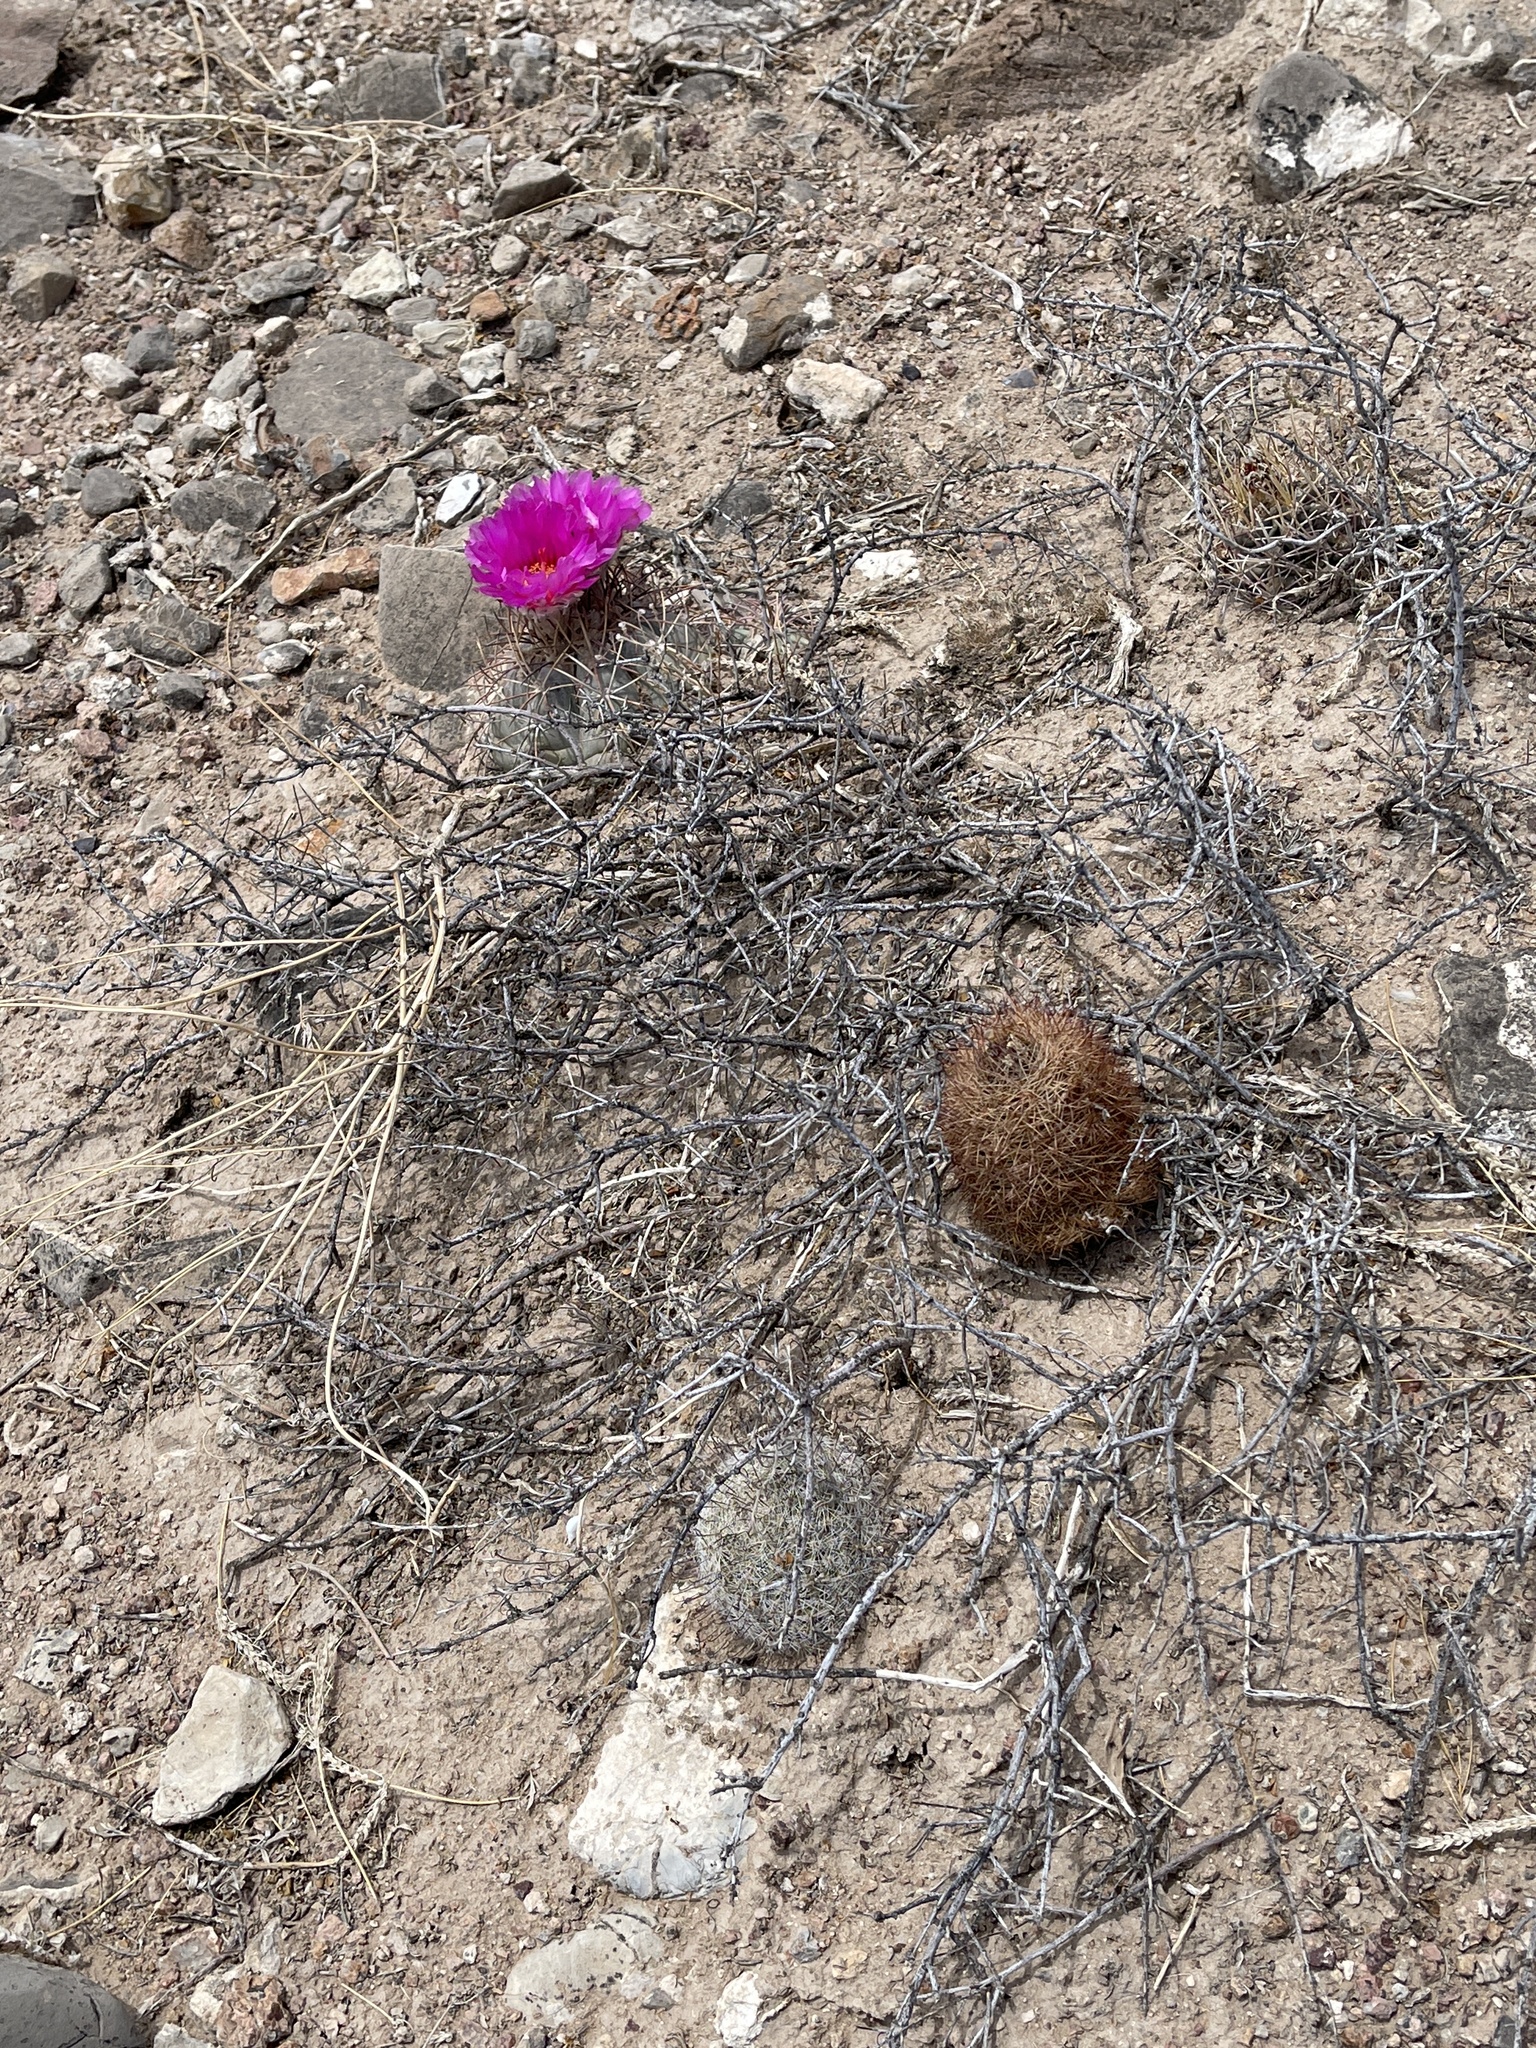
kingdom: Plantae
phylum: Tracheophyta
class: Magnoliopsida
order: Caryophyllales
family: Cactaceae
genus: Sclerocactus
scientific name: Sclerocactus intertextus
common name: White fish-hook cactus
